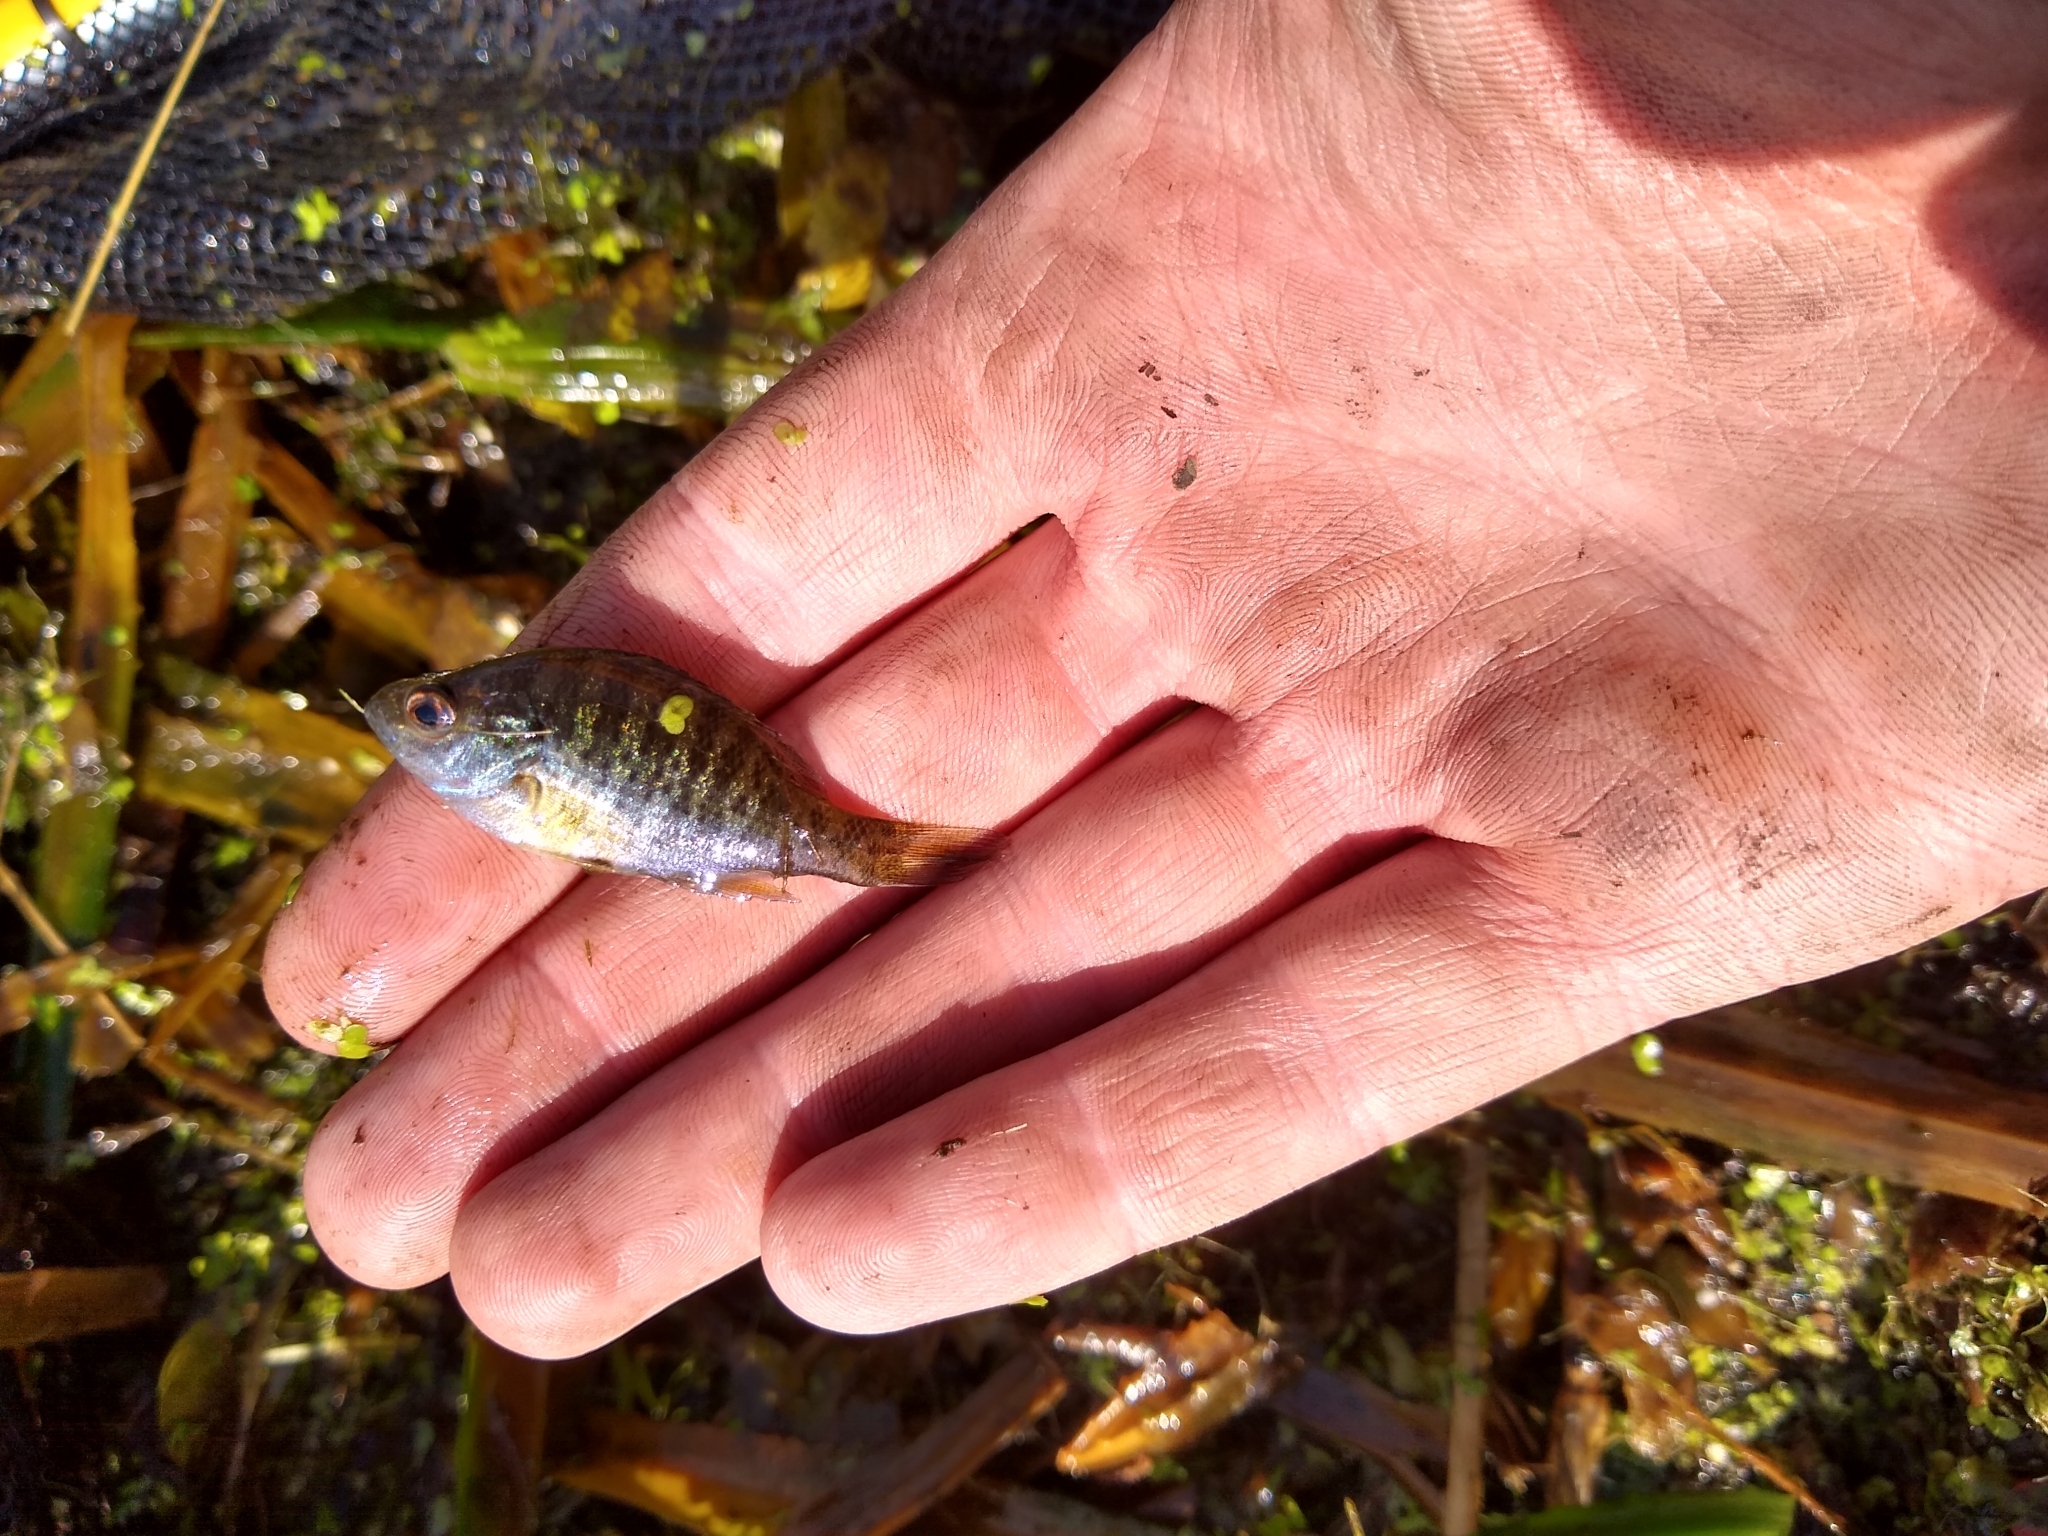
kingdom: Animalia
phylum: Chordata
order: Perciformes
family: Centrarchidae
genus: Lepomis
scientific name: Lepomis gibbosus
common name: Pumpkinseed
